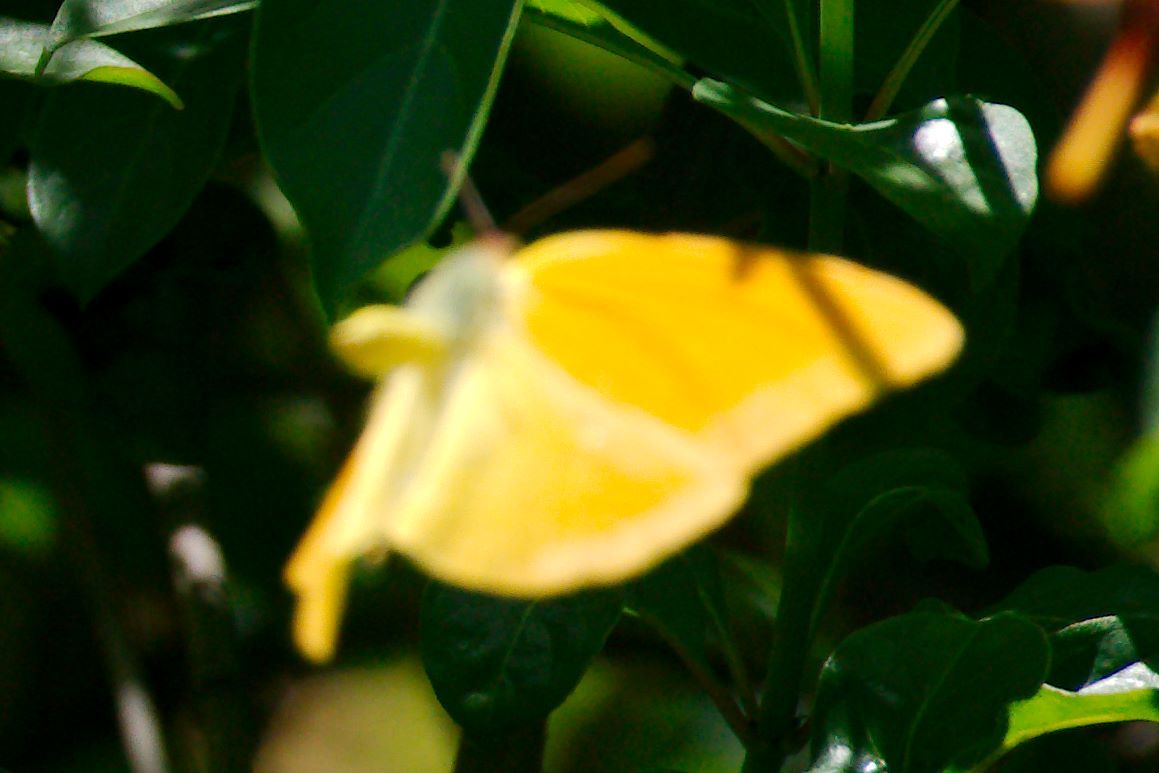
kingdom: Animalia
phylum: Arthropoda
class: Insecta
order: Lepidoptera
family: Pieridae
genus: Phoebis
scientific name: Phoebis agarithe
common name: Large orange sulphur
